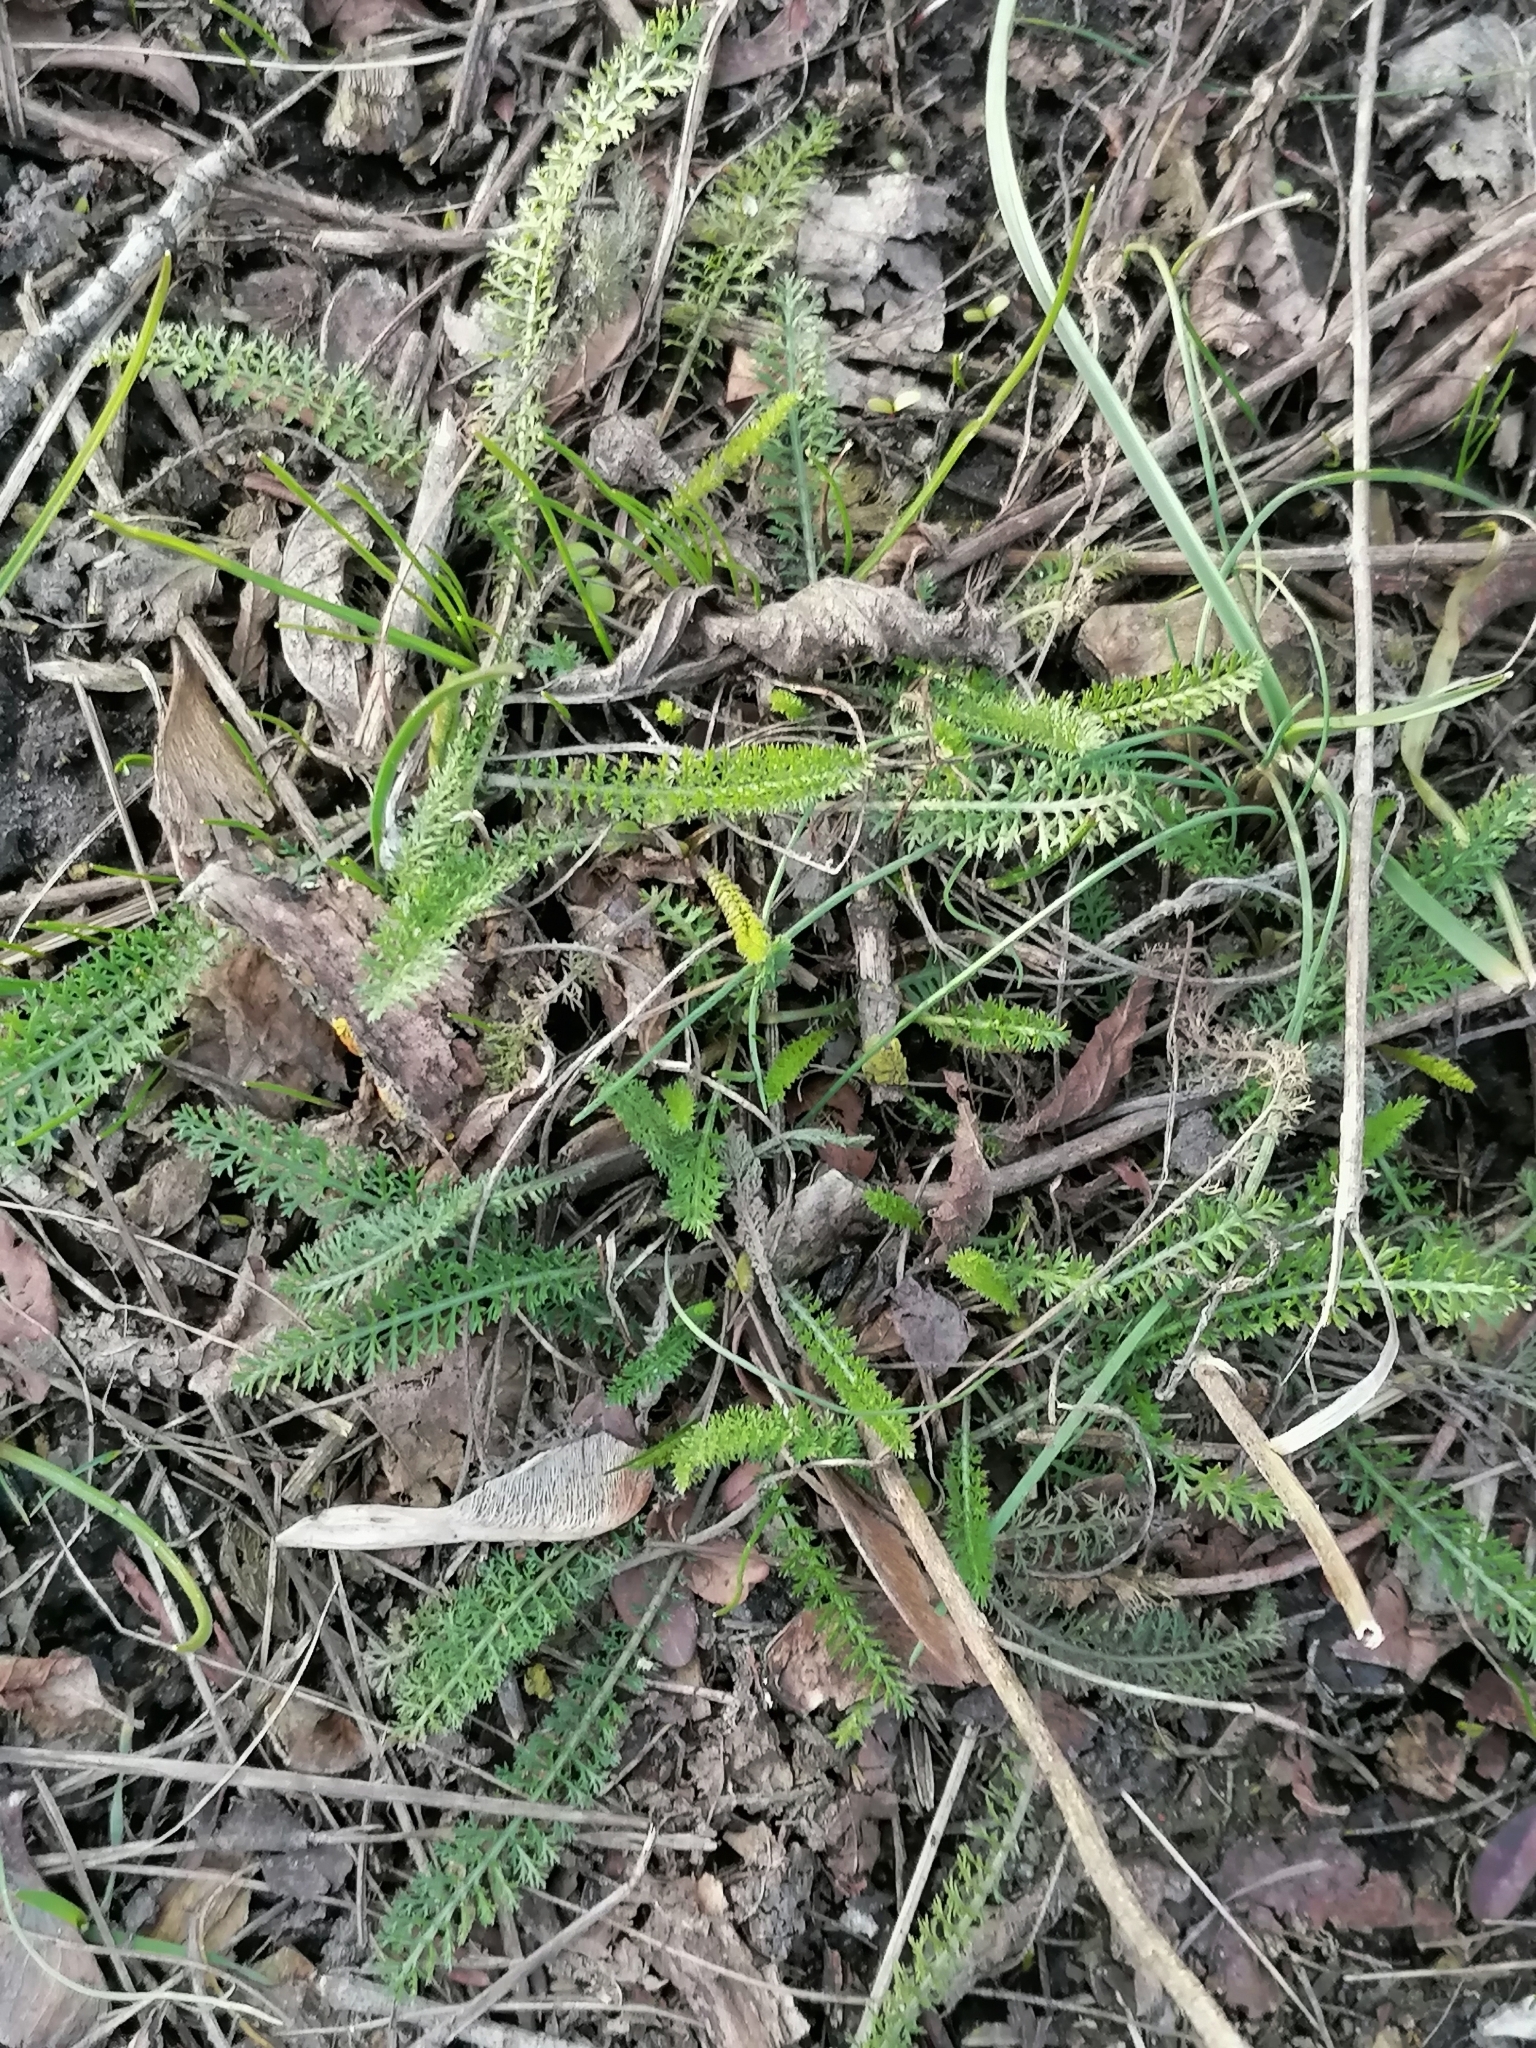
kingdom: Plantae
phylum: Tracheophyta
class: Magnoliopsida
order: Asterales
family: Asteraceae
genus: Achillea
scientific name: Achillea millefolium
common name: Yarrow
